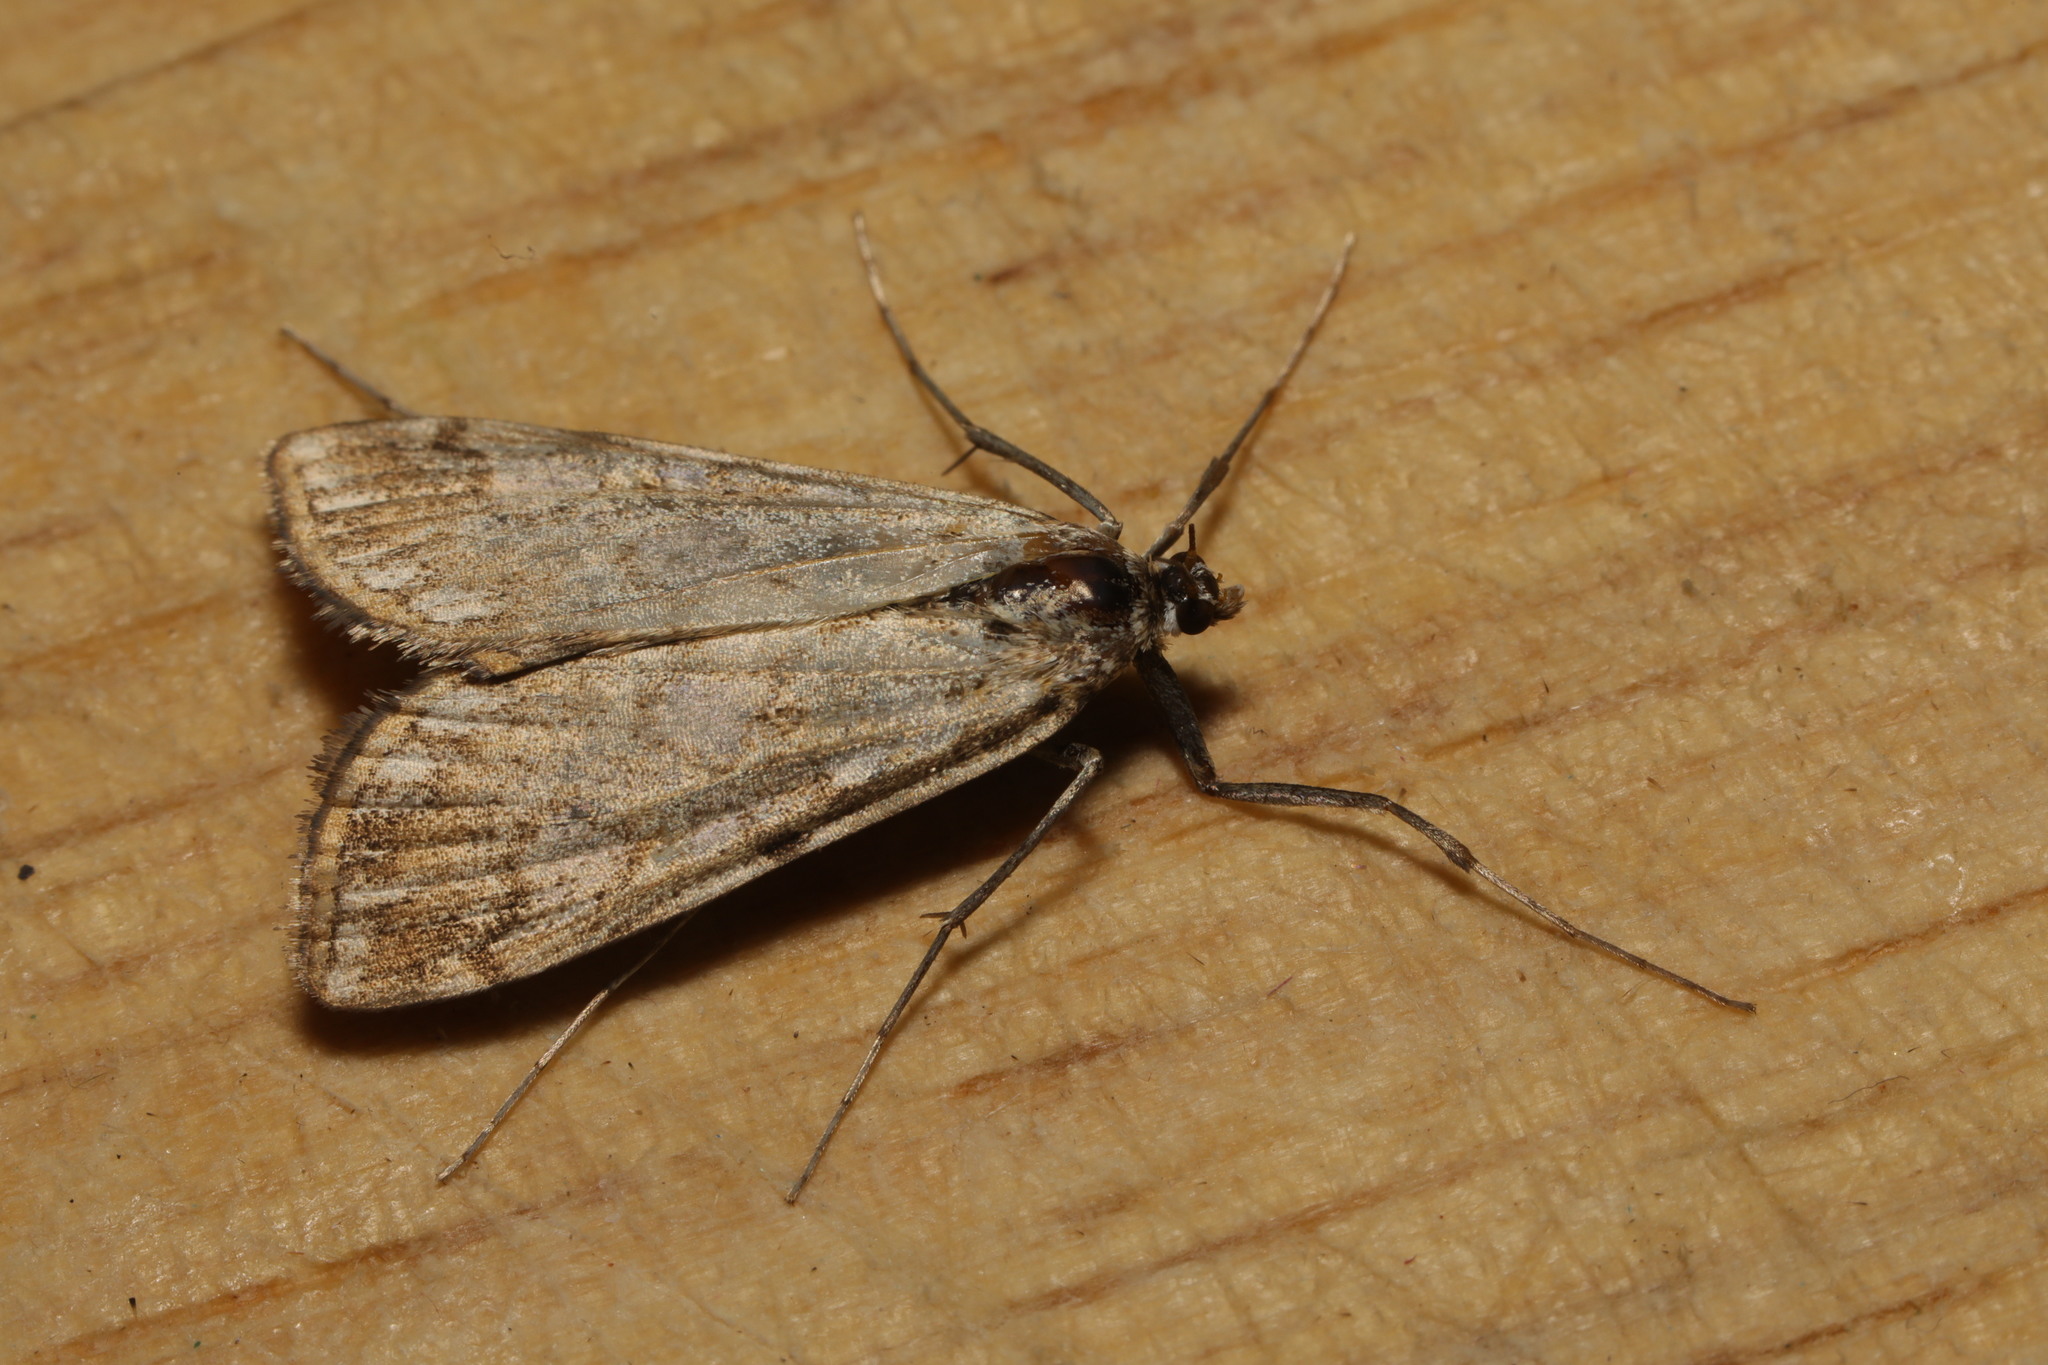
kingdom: Animalia
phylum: Arthropoda
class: Insecta
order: Lepidoptera
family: Crambidae
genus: Elophila
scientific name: Elophila nymphaeata
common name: Brown china-mark
